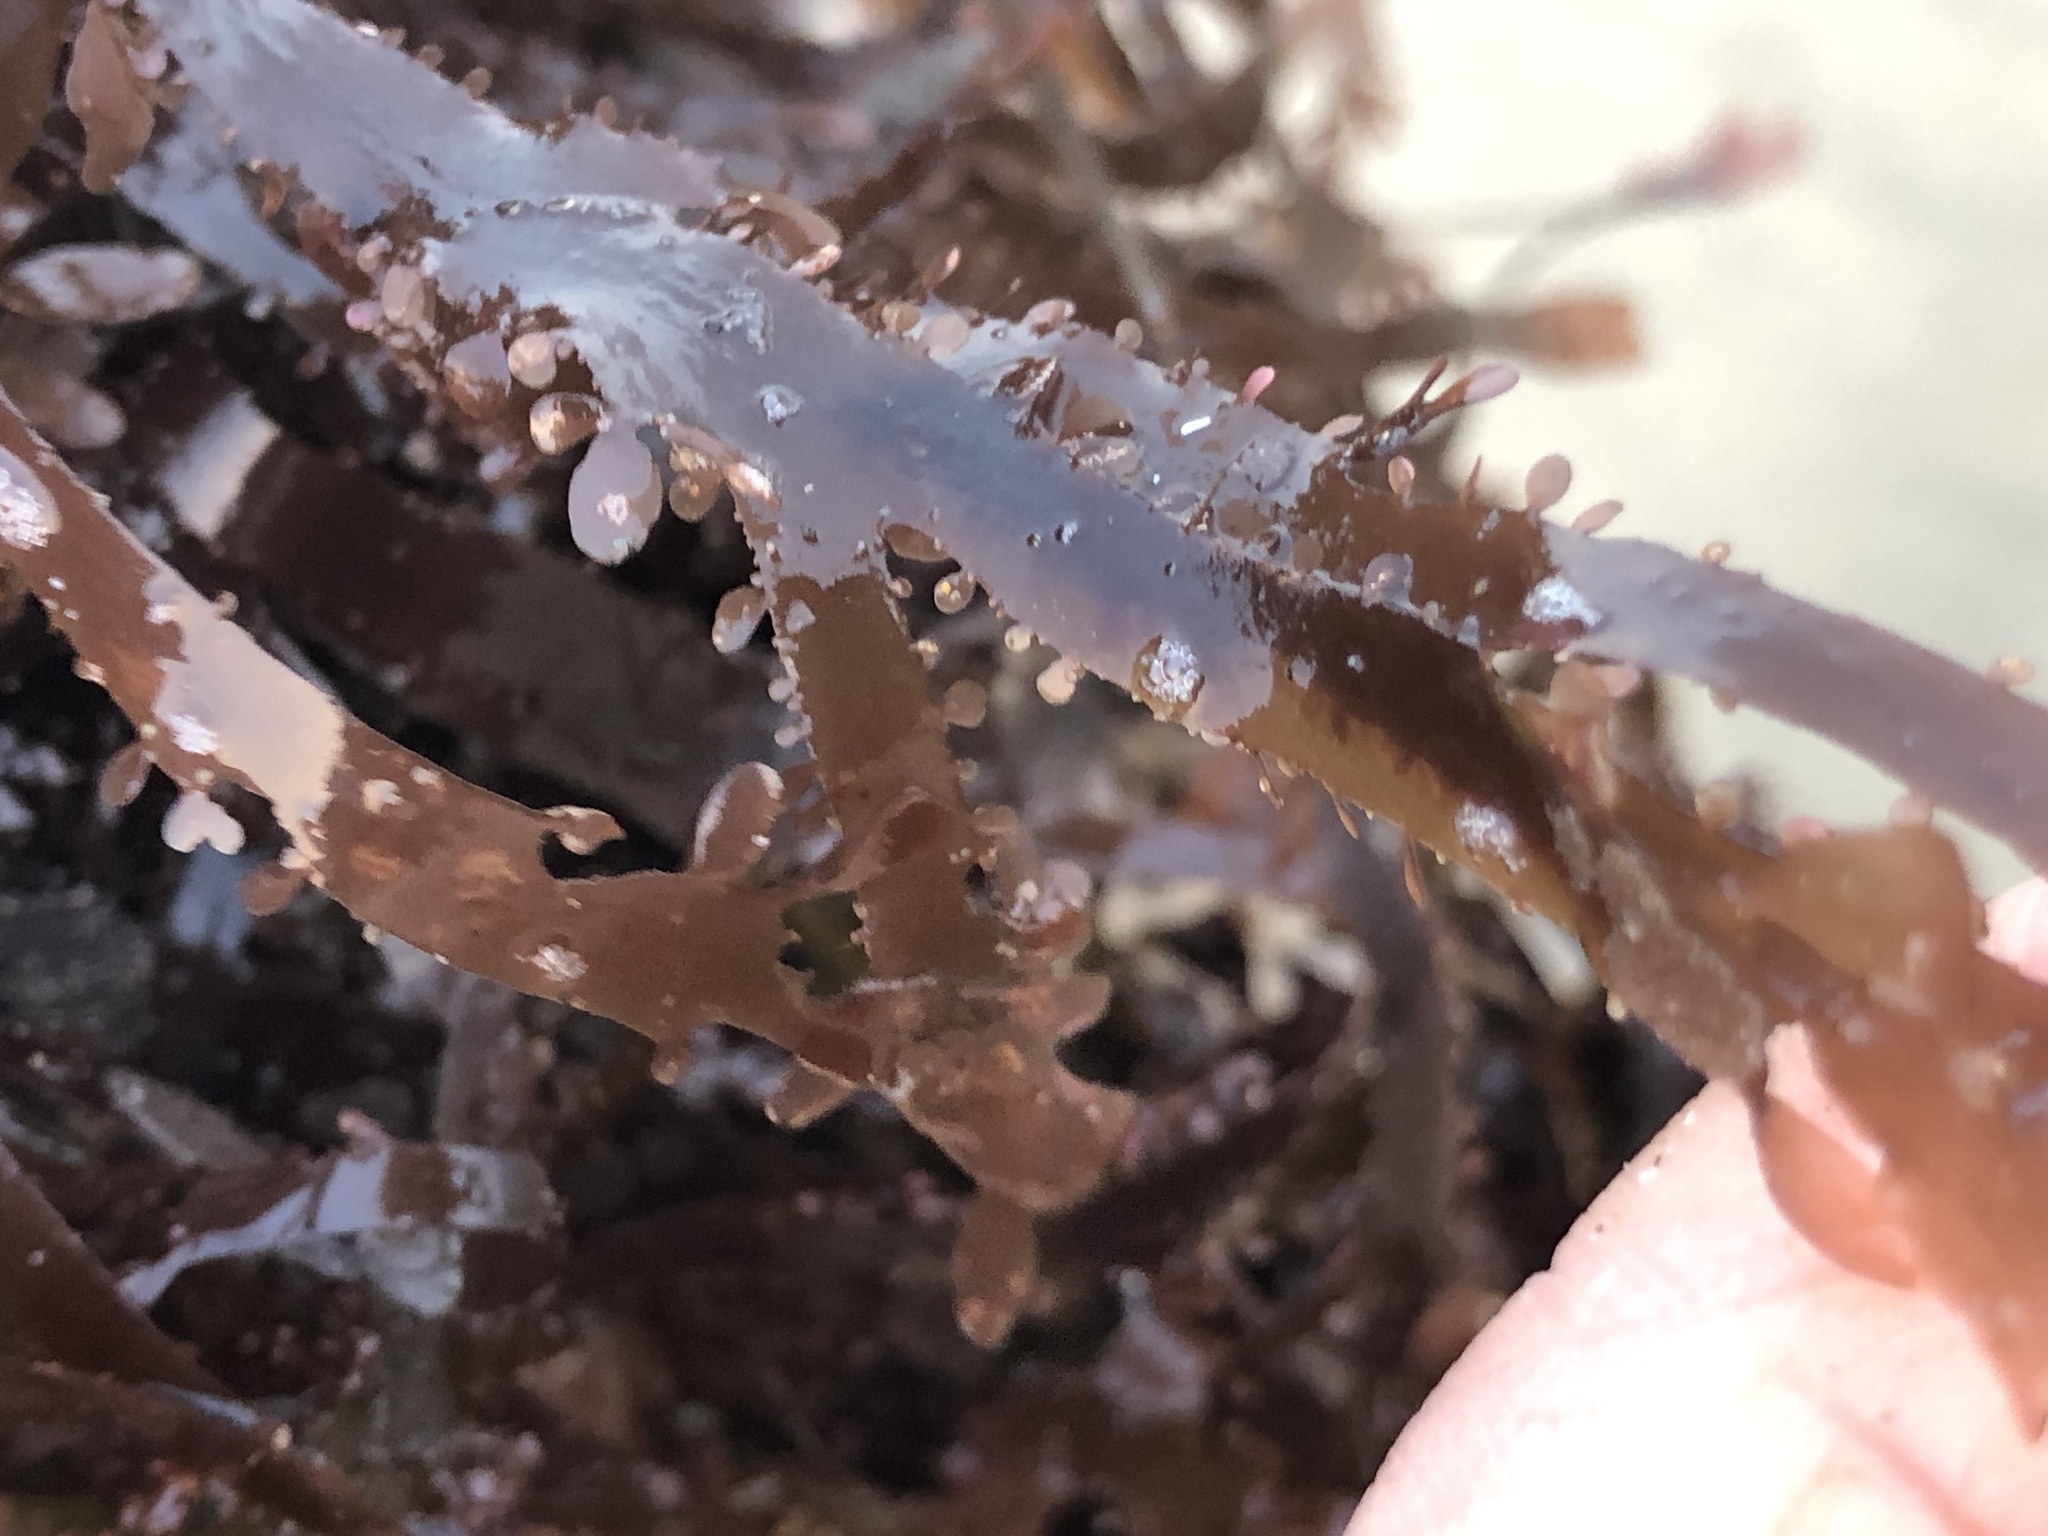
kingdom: Plantae
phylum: Rhodophyta
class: Florideophyceae
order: Ceramiales
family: Delesseriaceae
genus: Cryptopleura
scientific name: Cryptopleura violacea
